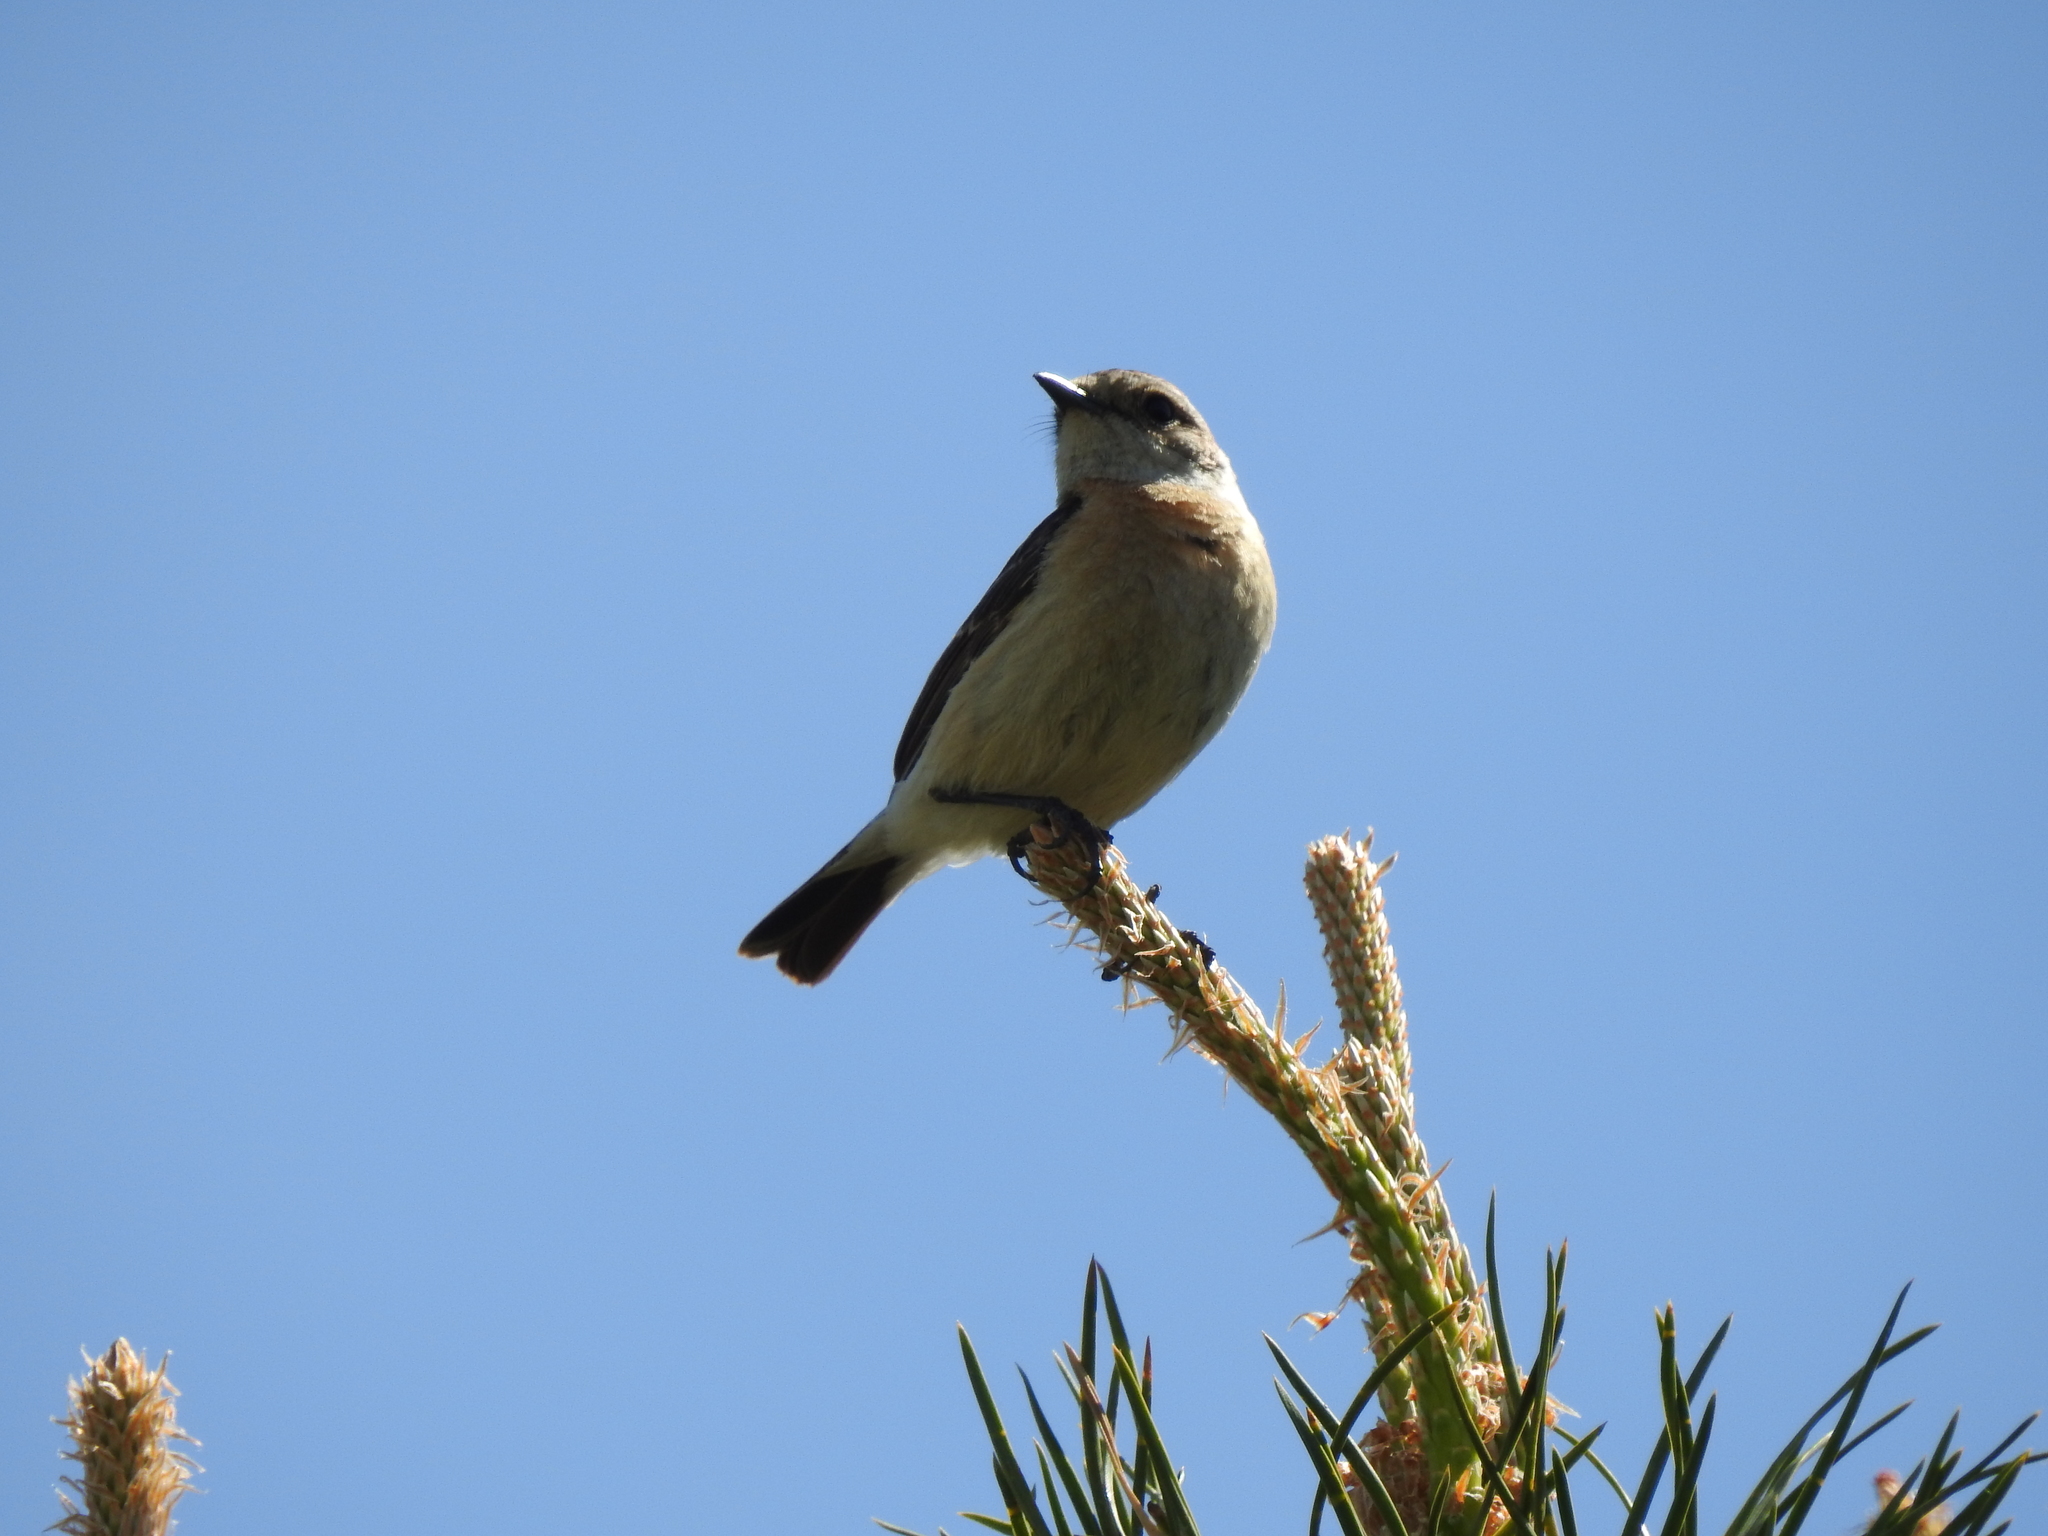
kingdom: Animalia
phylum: Chordata
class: Aves
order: Passeriformes
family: Muscicapidae
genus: Saxicola
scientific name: Saxicola maurus
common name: Siberian stonechat
